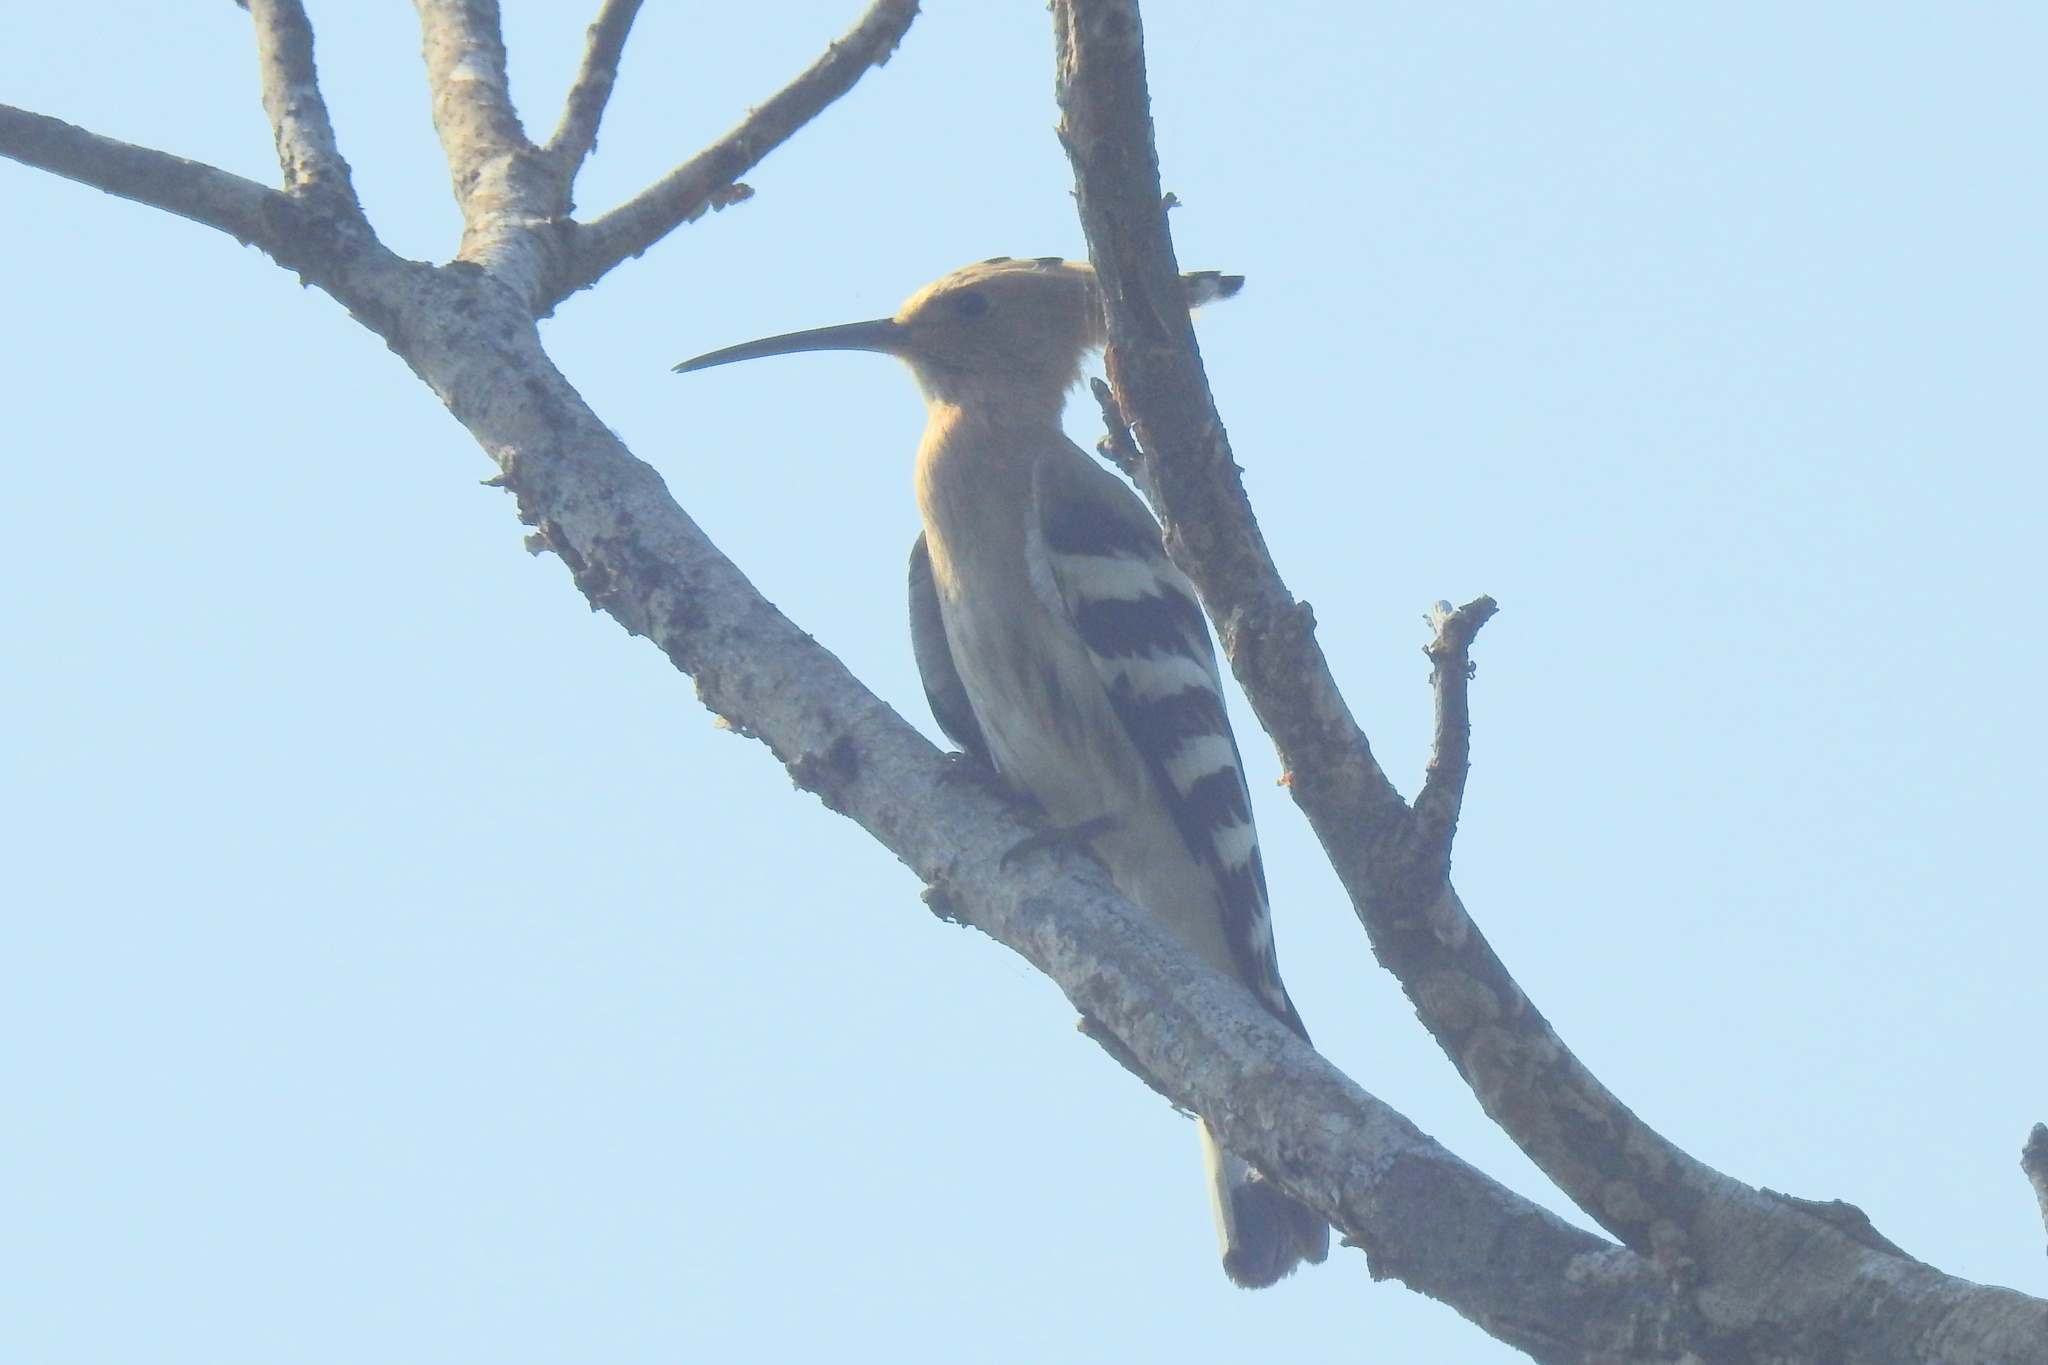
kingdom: Animalia
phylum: Chordata
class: Aves
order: Bucerotiformes
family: Upupidae
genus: Upupa
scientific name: Upupa epops
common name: Eurasian hoopoe
